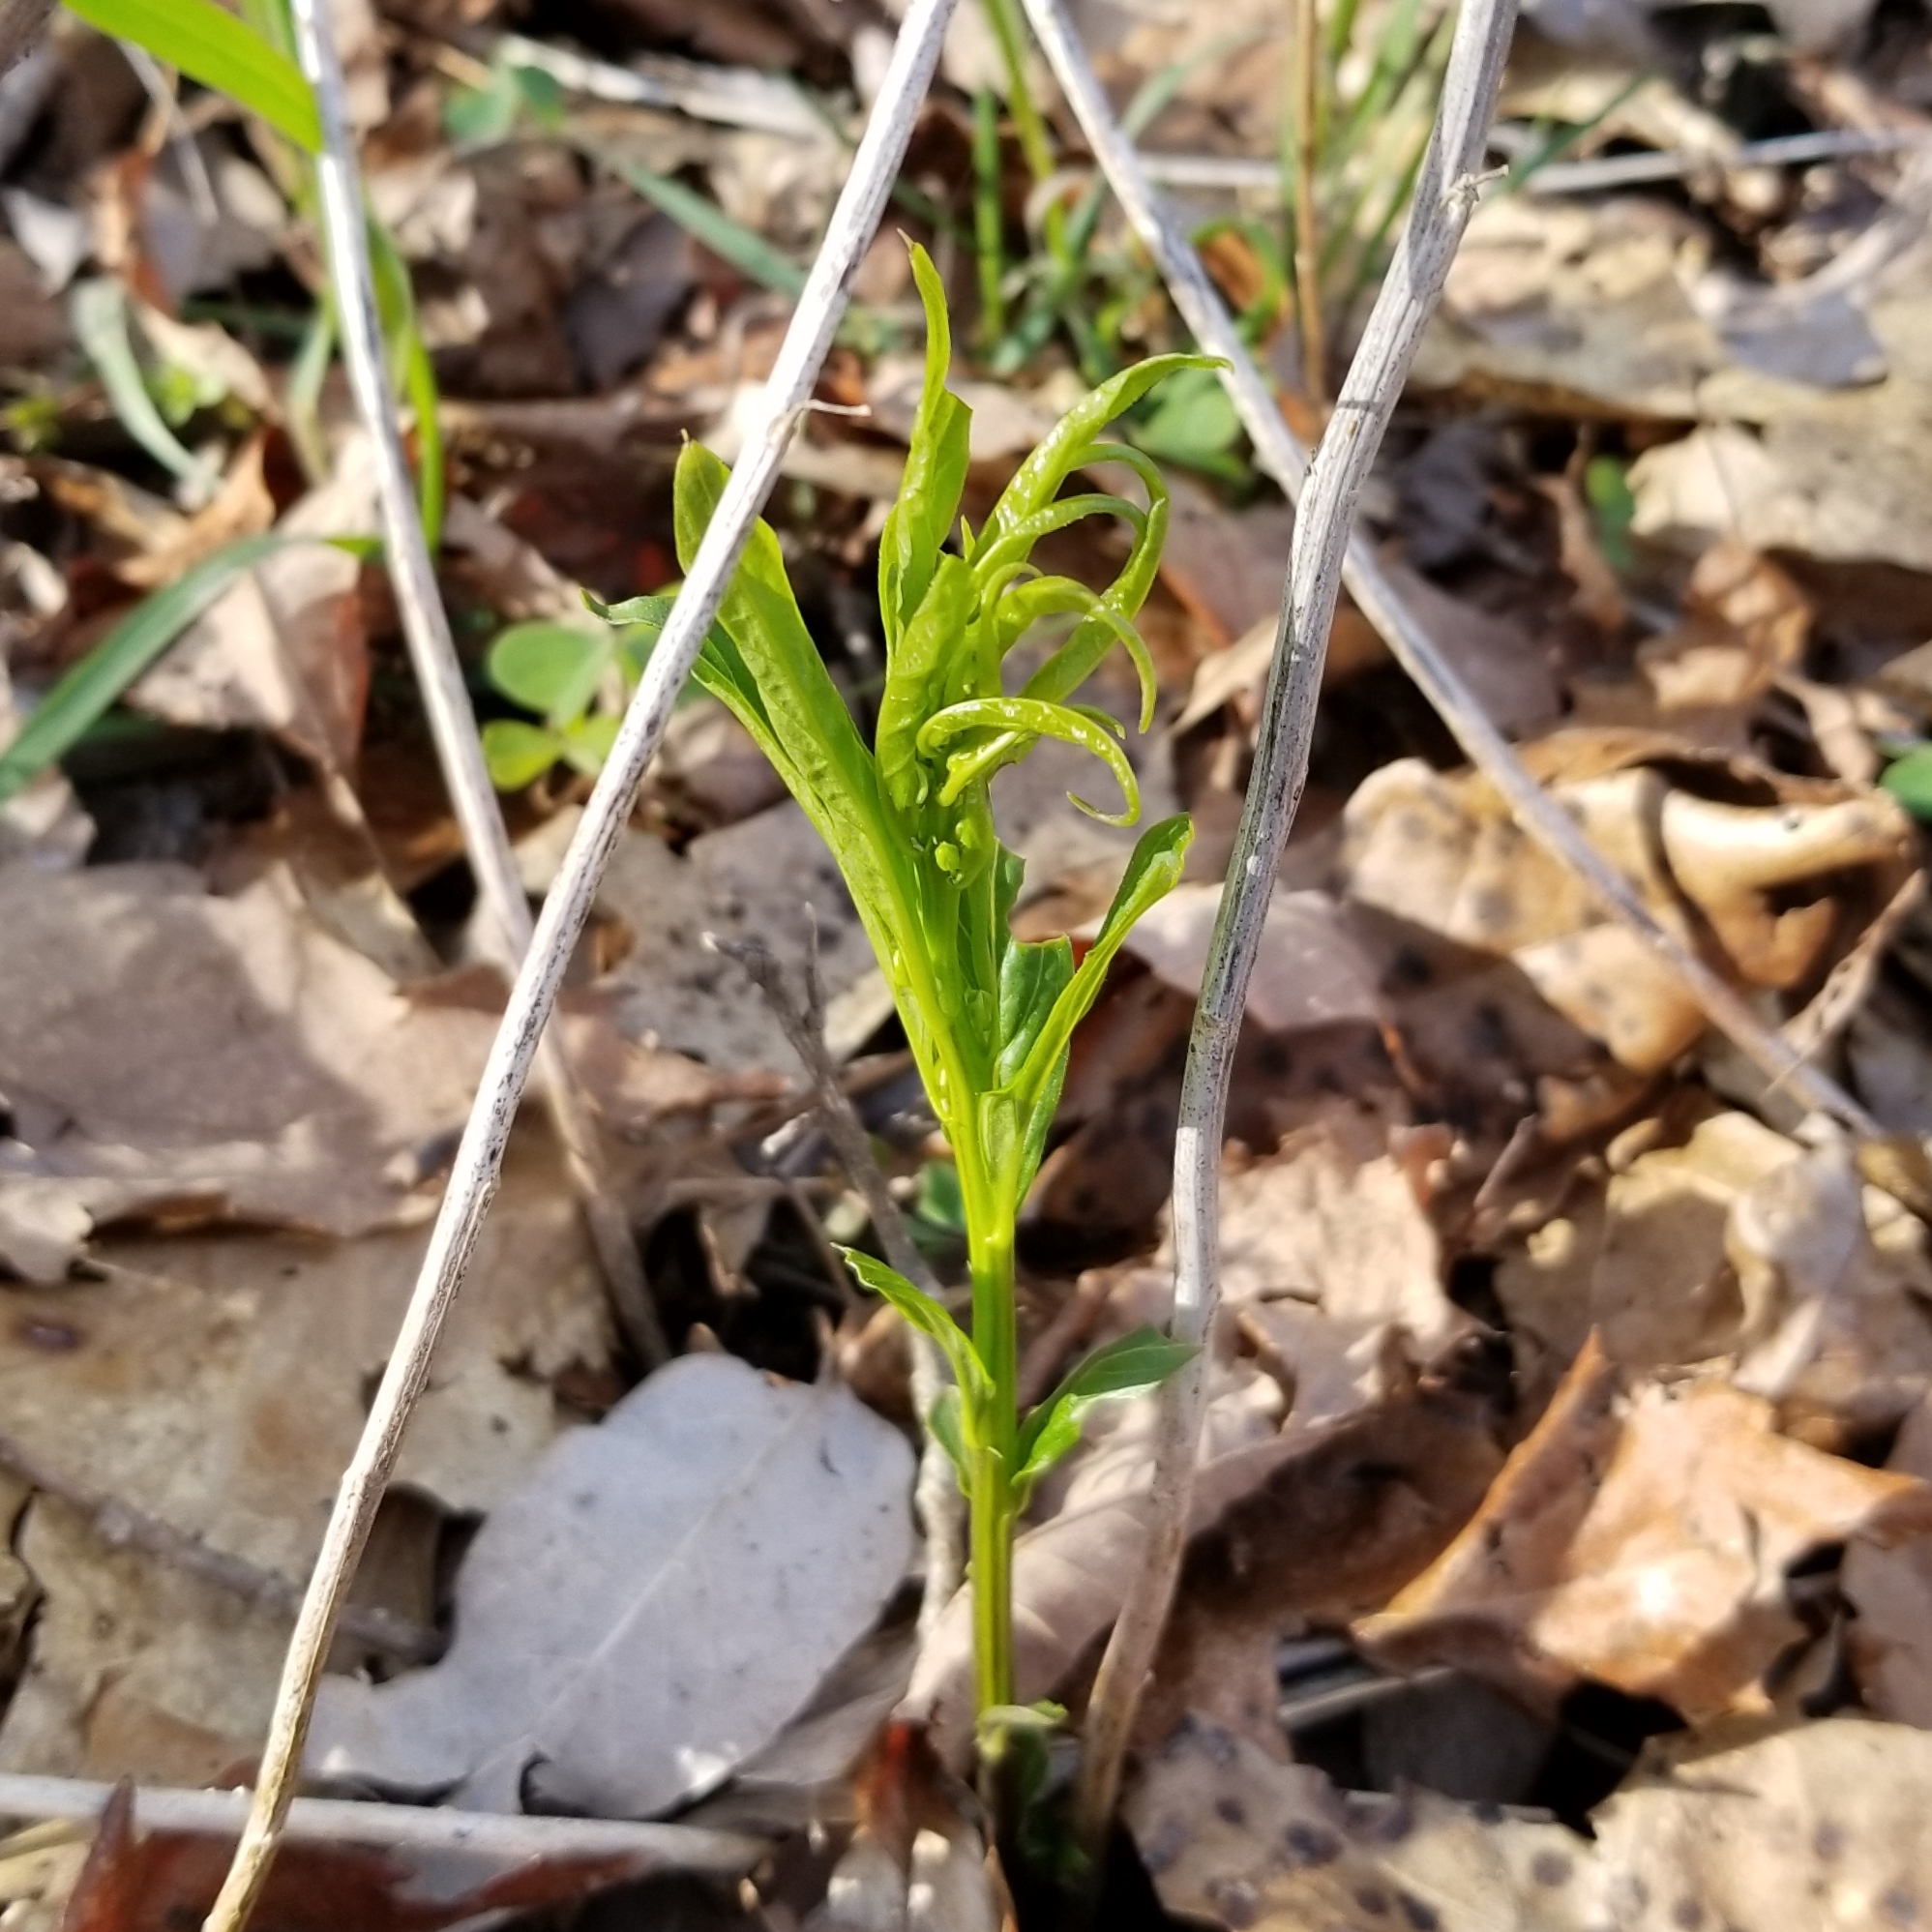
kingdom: Plantae
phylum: Tracheophyta
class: Magnoliopsida
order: Malpighiales
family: Violaceae
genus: Cubelium
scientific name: Cubelium concolor
